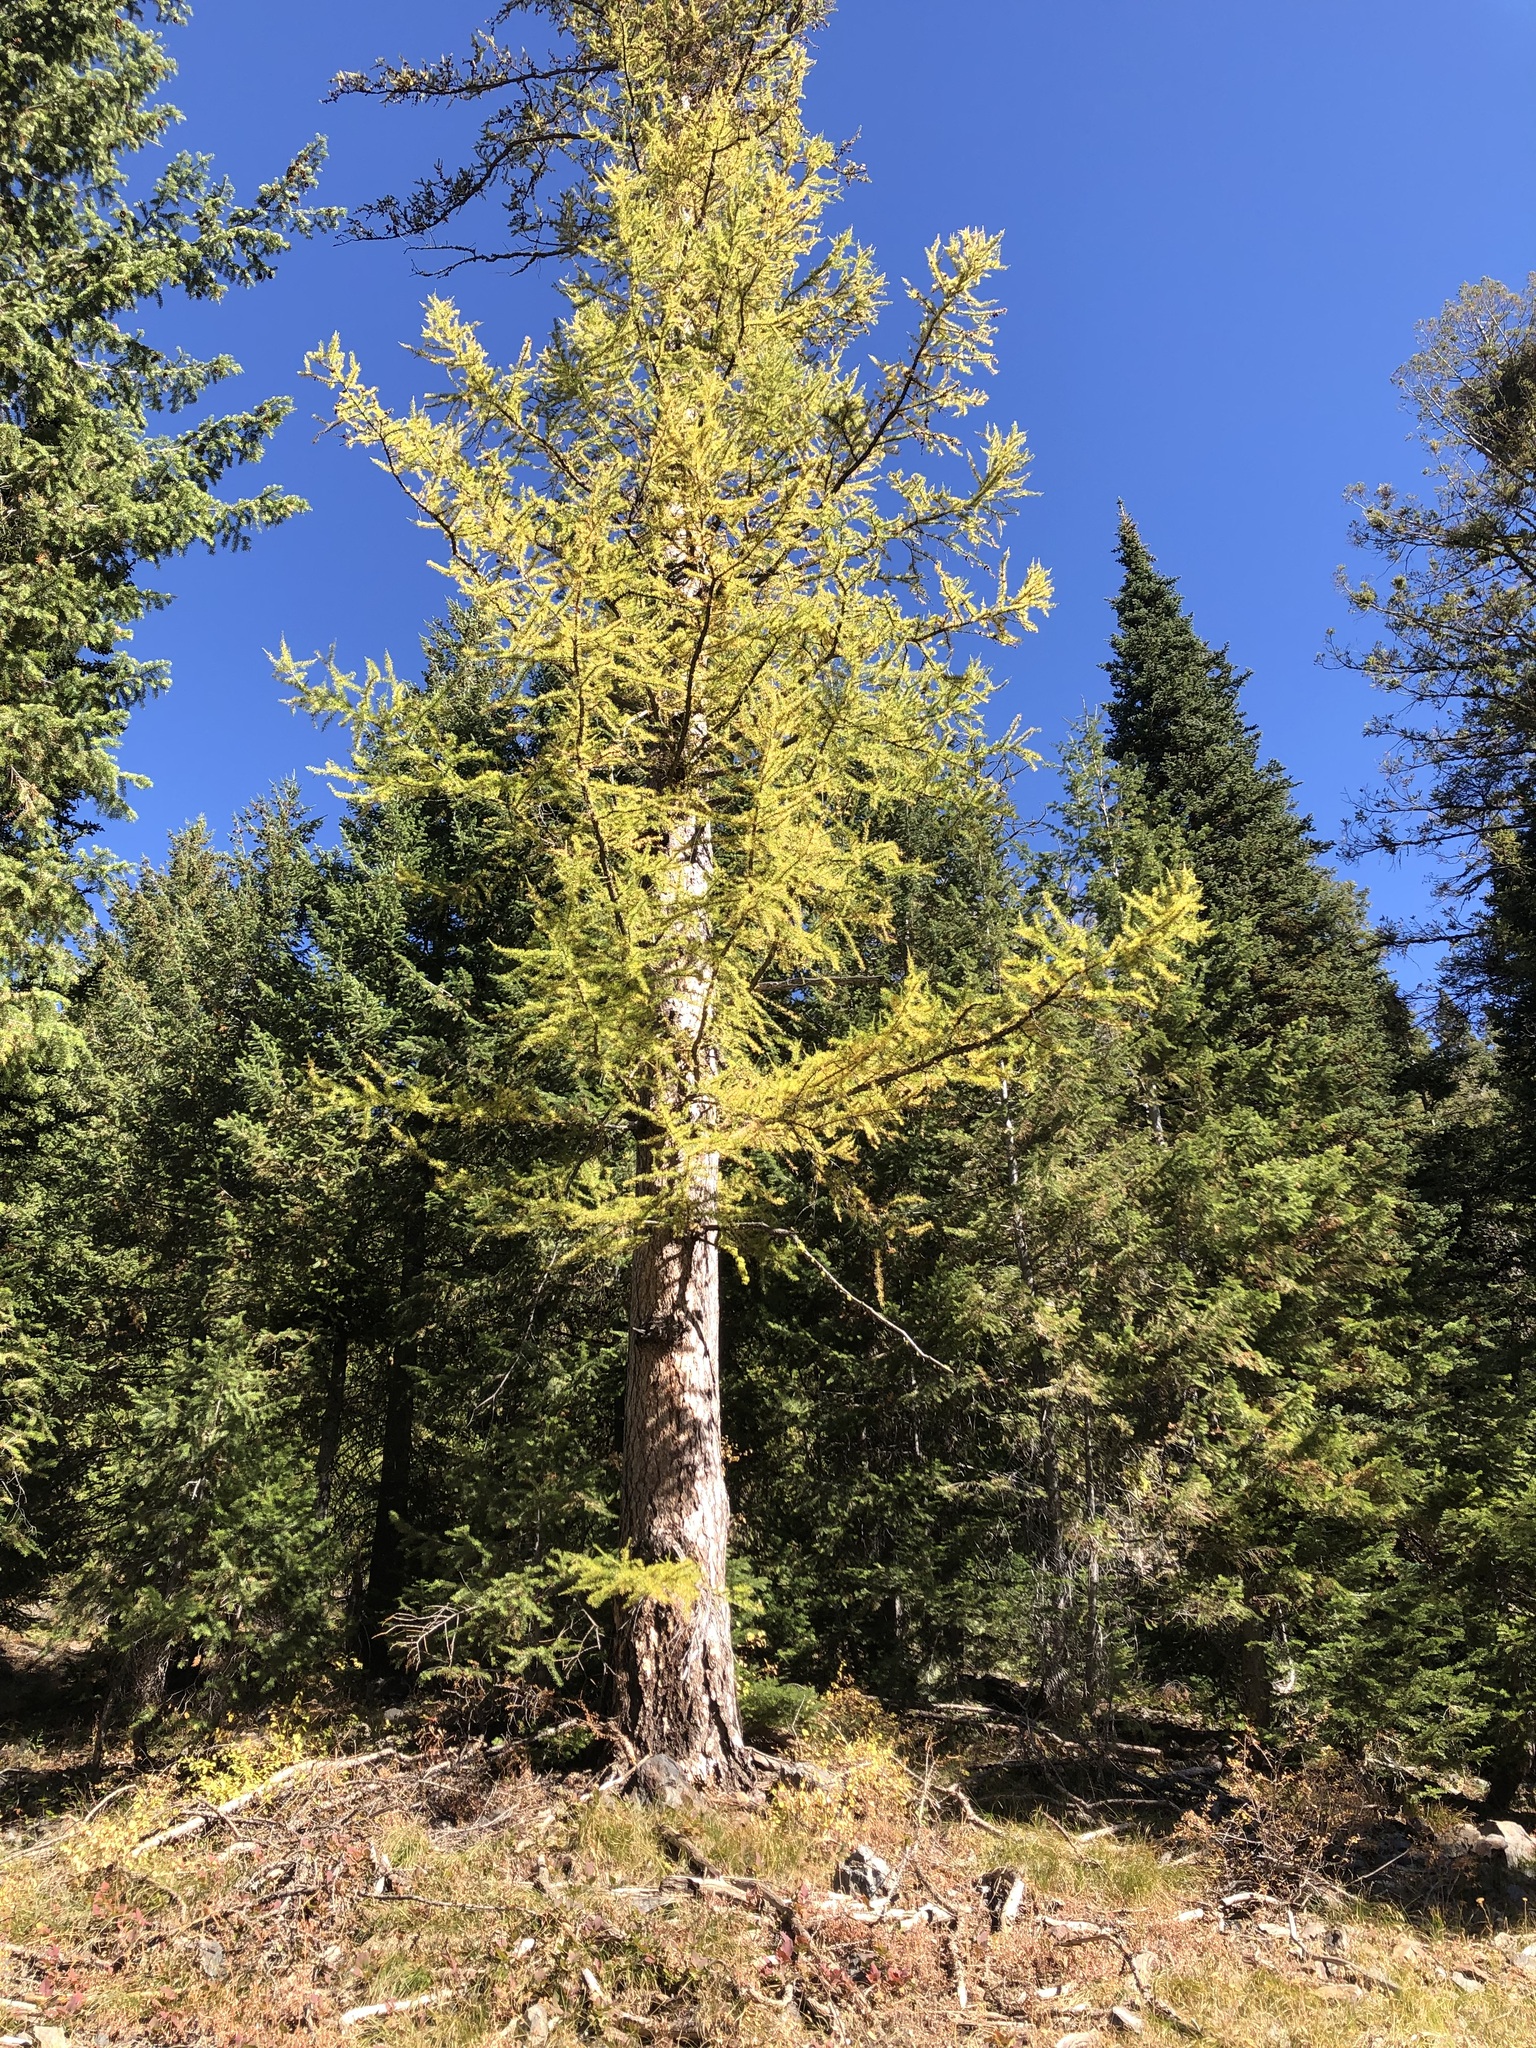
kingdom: Plantae
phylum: Tracheophyta
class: Pinopsida
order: Pinales
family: Pinaceae
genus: Larix
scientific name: Larix occidentalis
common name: Western larch
